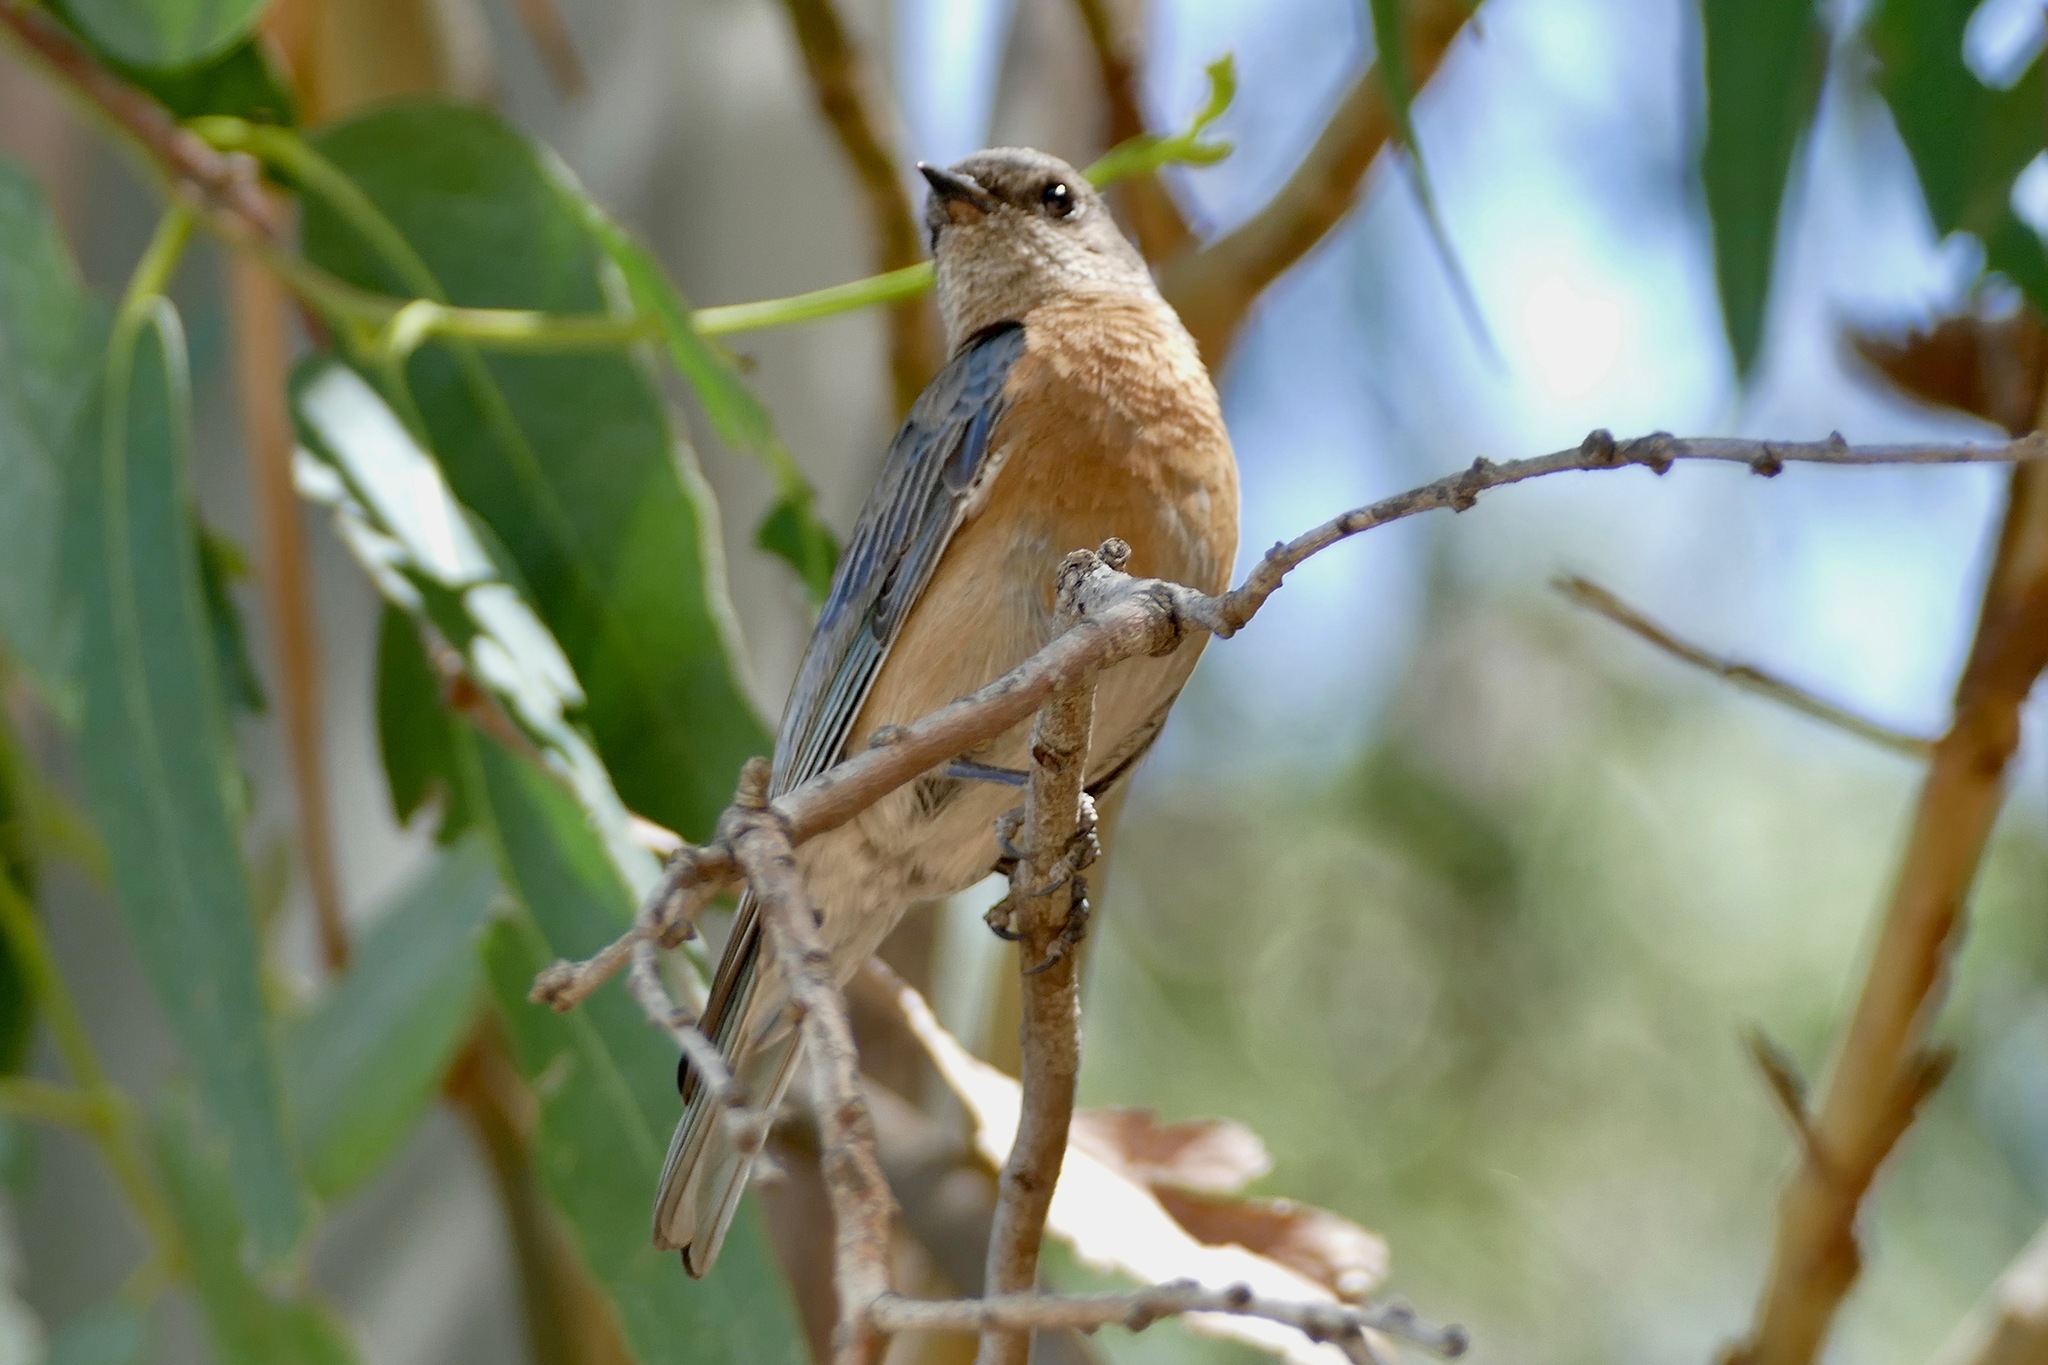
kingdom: Animalia
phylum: Chordata
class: Aves
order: Passeriformes
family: Turdidae
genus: Sialia
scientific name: Sialia mexicana
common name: Western bluebird
